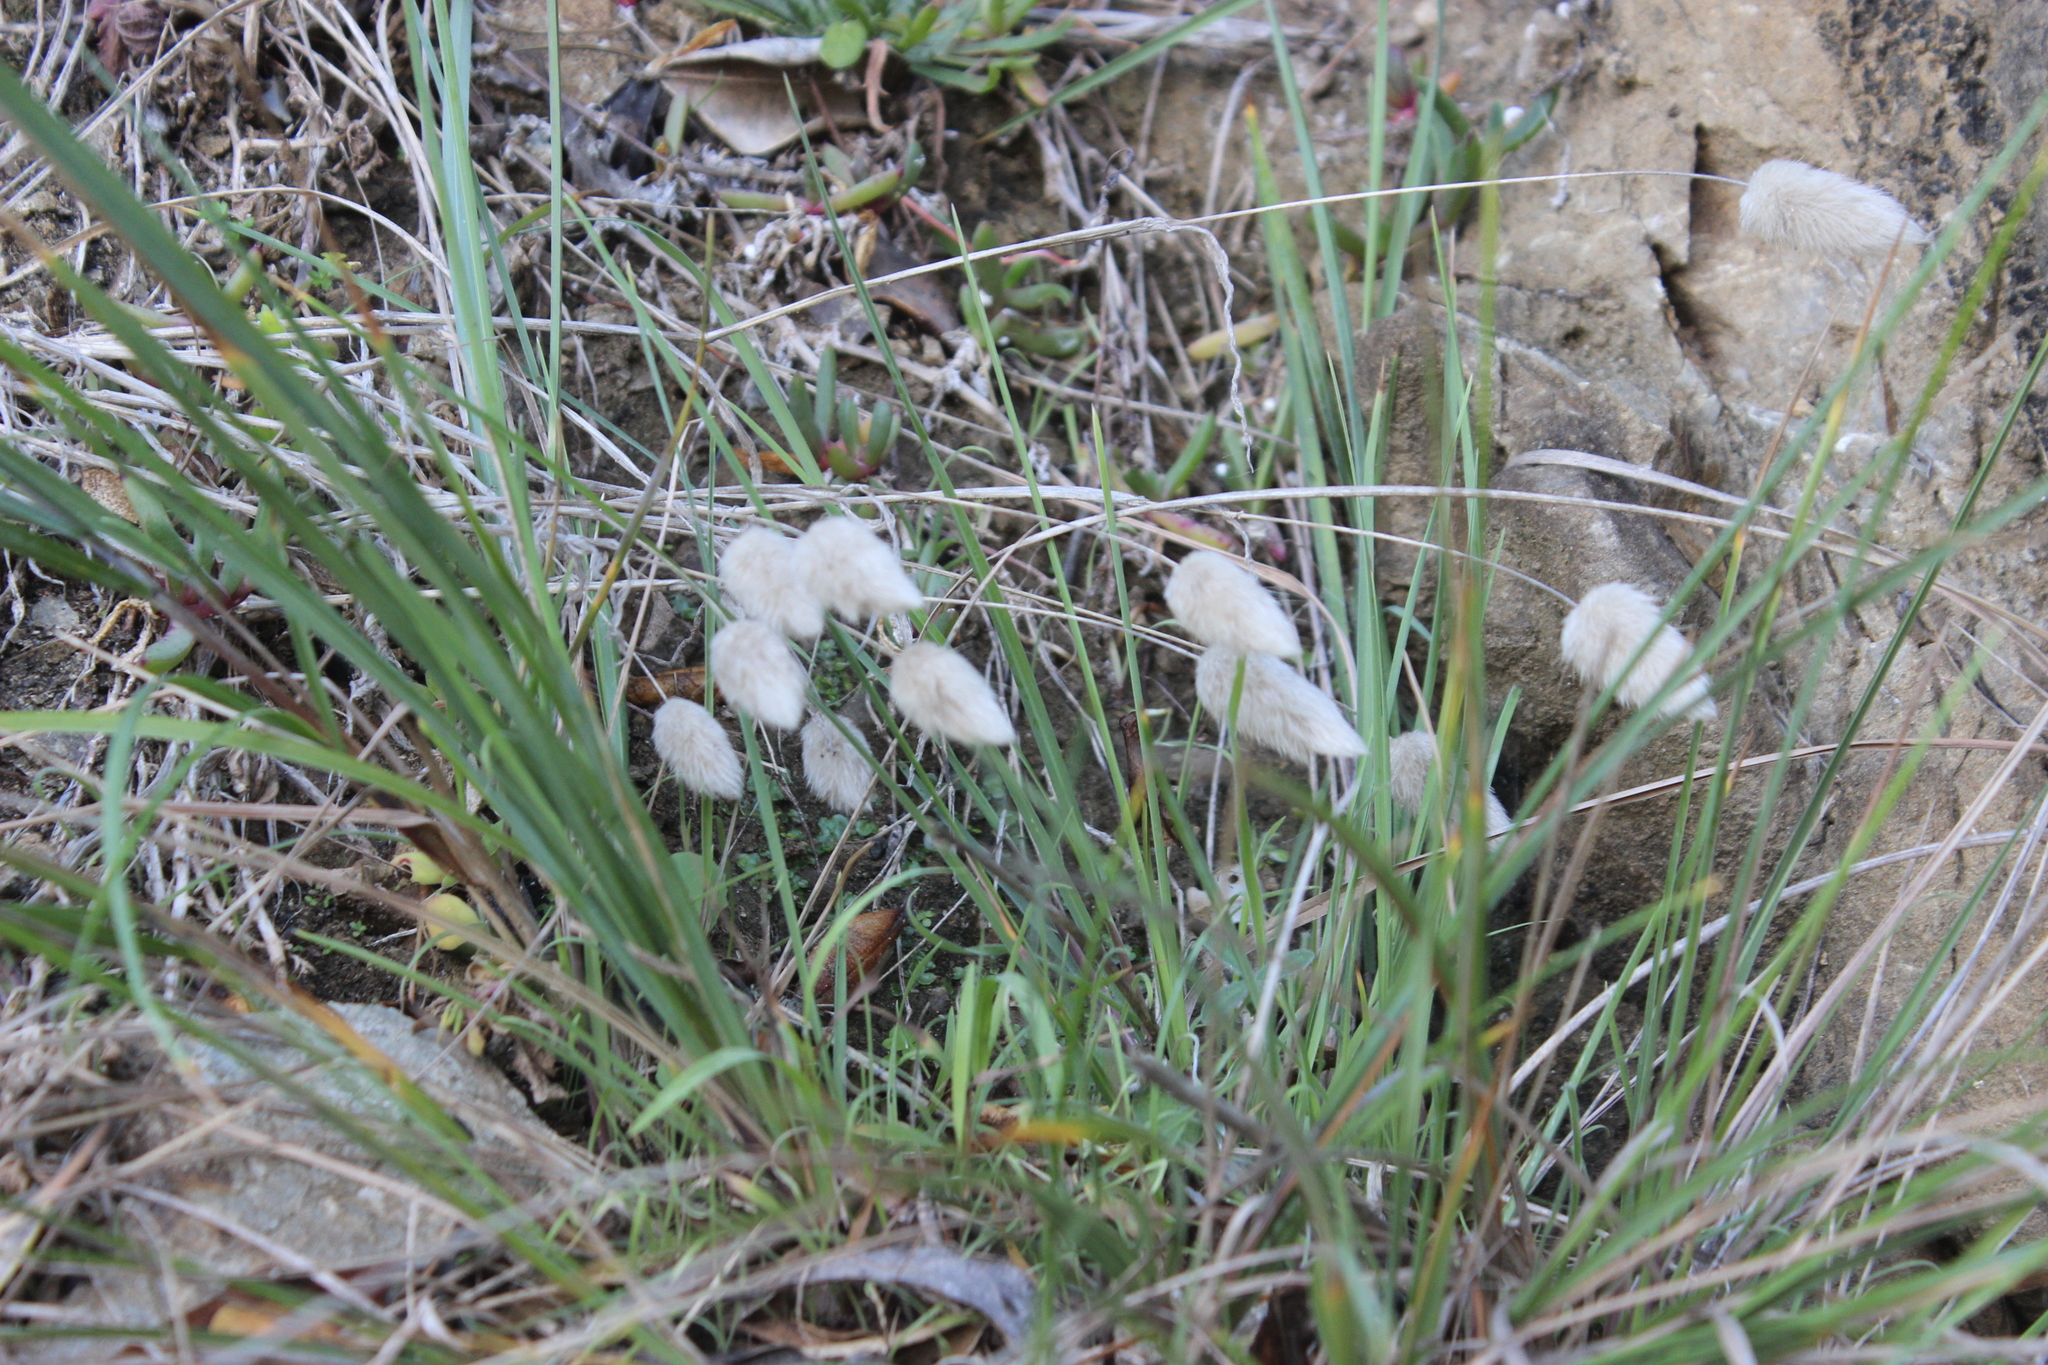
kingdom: Plantae
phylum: Tracheophyta
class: Liliopsida
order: Poales
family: Poaceae
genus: Lagurus
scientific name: Lagurus ovatus
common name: Hare's-tail
